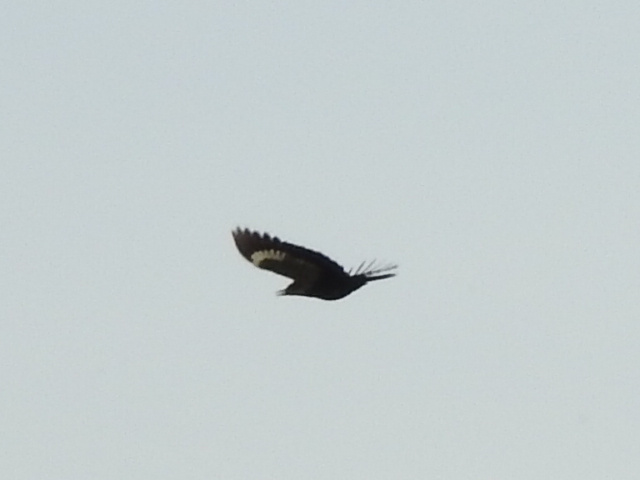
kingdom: Animalia
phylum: Chordata
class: Aves
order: Piciformes
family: Picidae
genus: Dryocopus
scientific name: Dryocopus pileatus
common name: Pileated woodpecker
